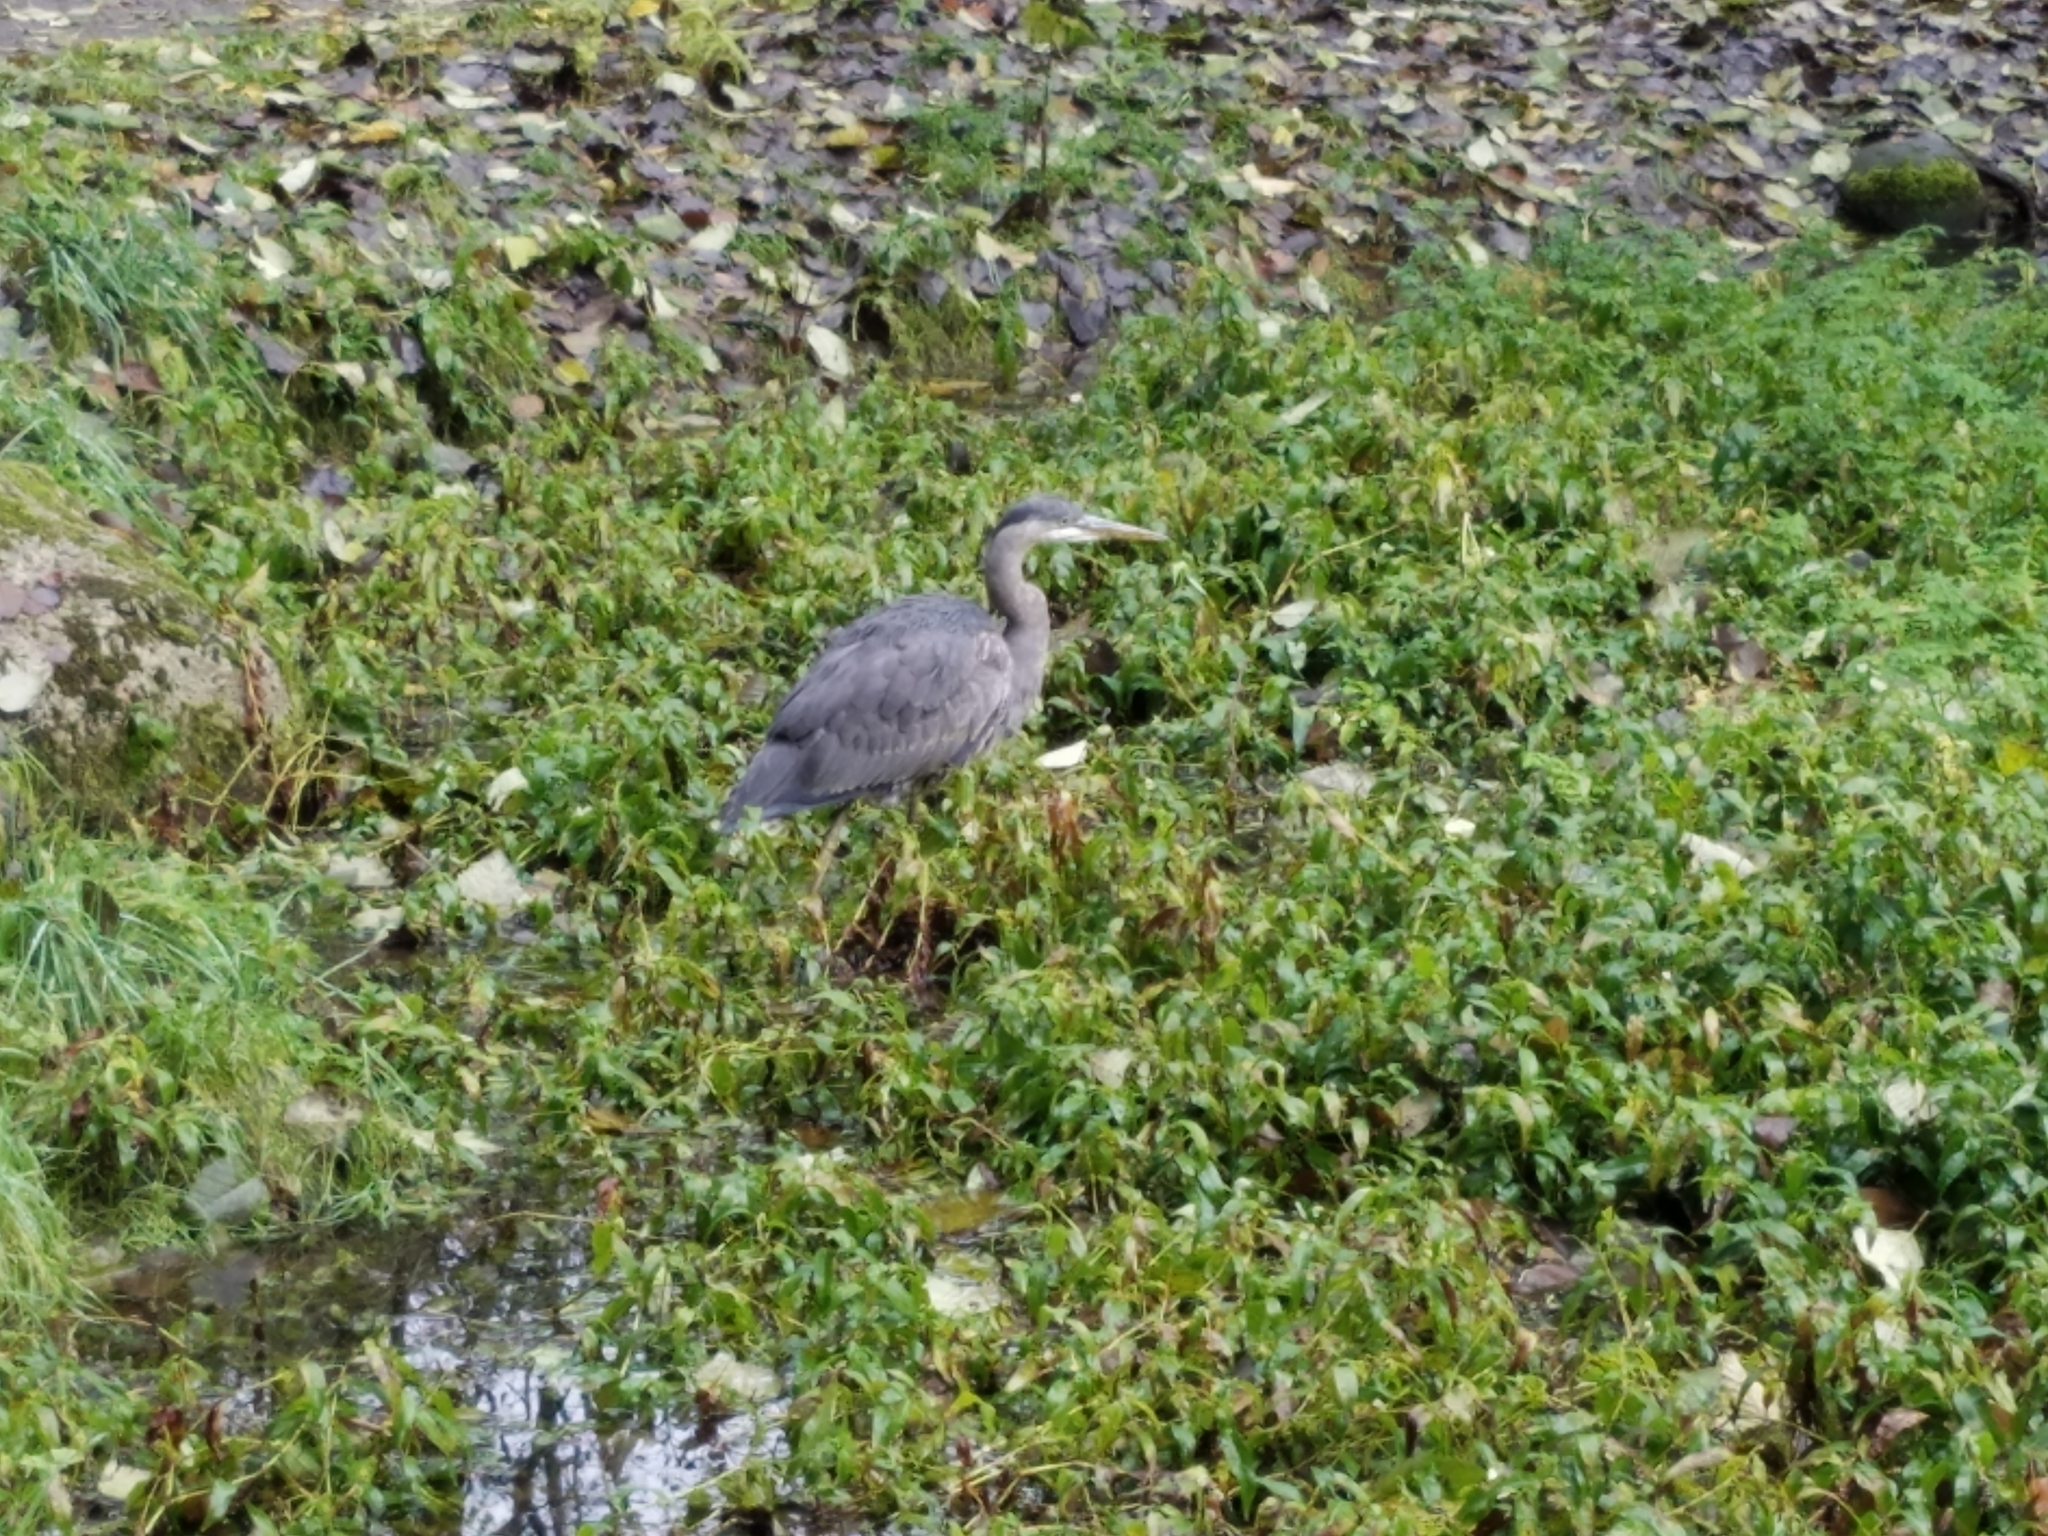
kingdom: Animalia
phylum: Chordata
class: Aves
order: Pelecaniformes
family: Ardeidae
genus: Ardea
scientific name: Ardea herodias
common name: Great blue heron
